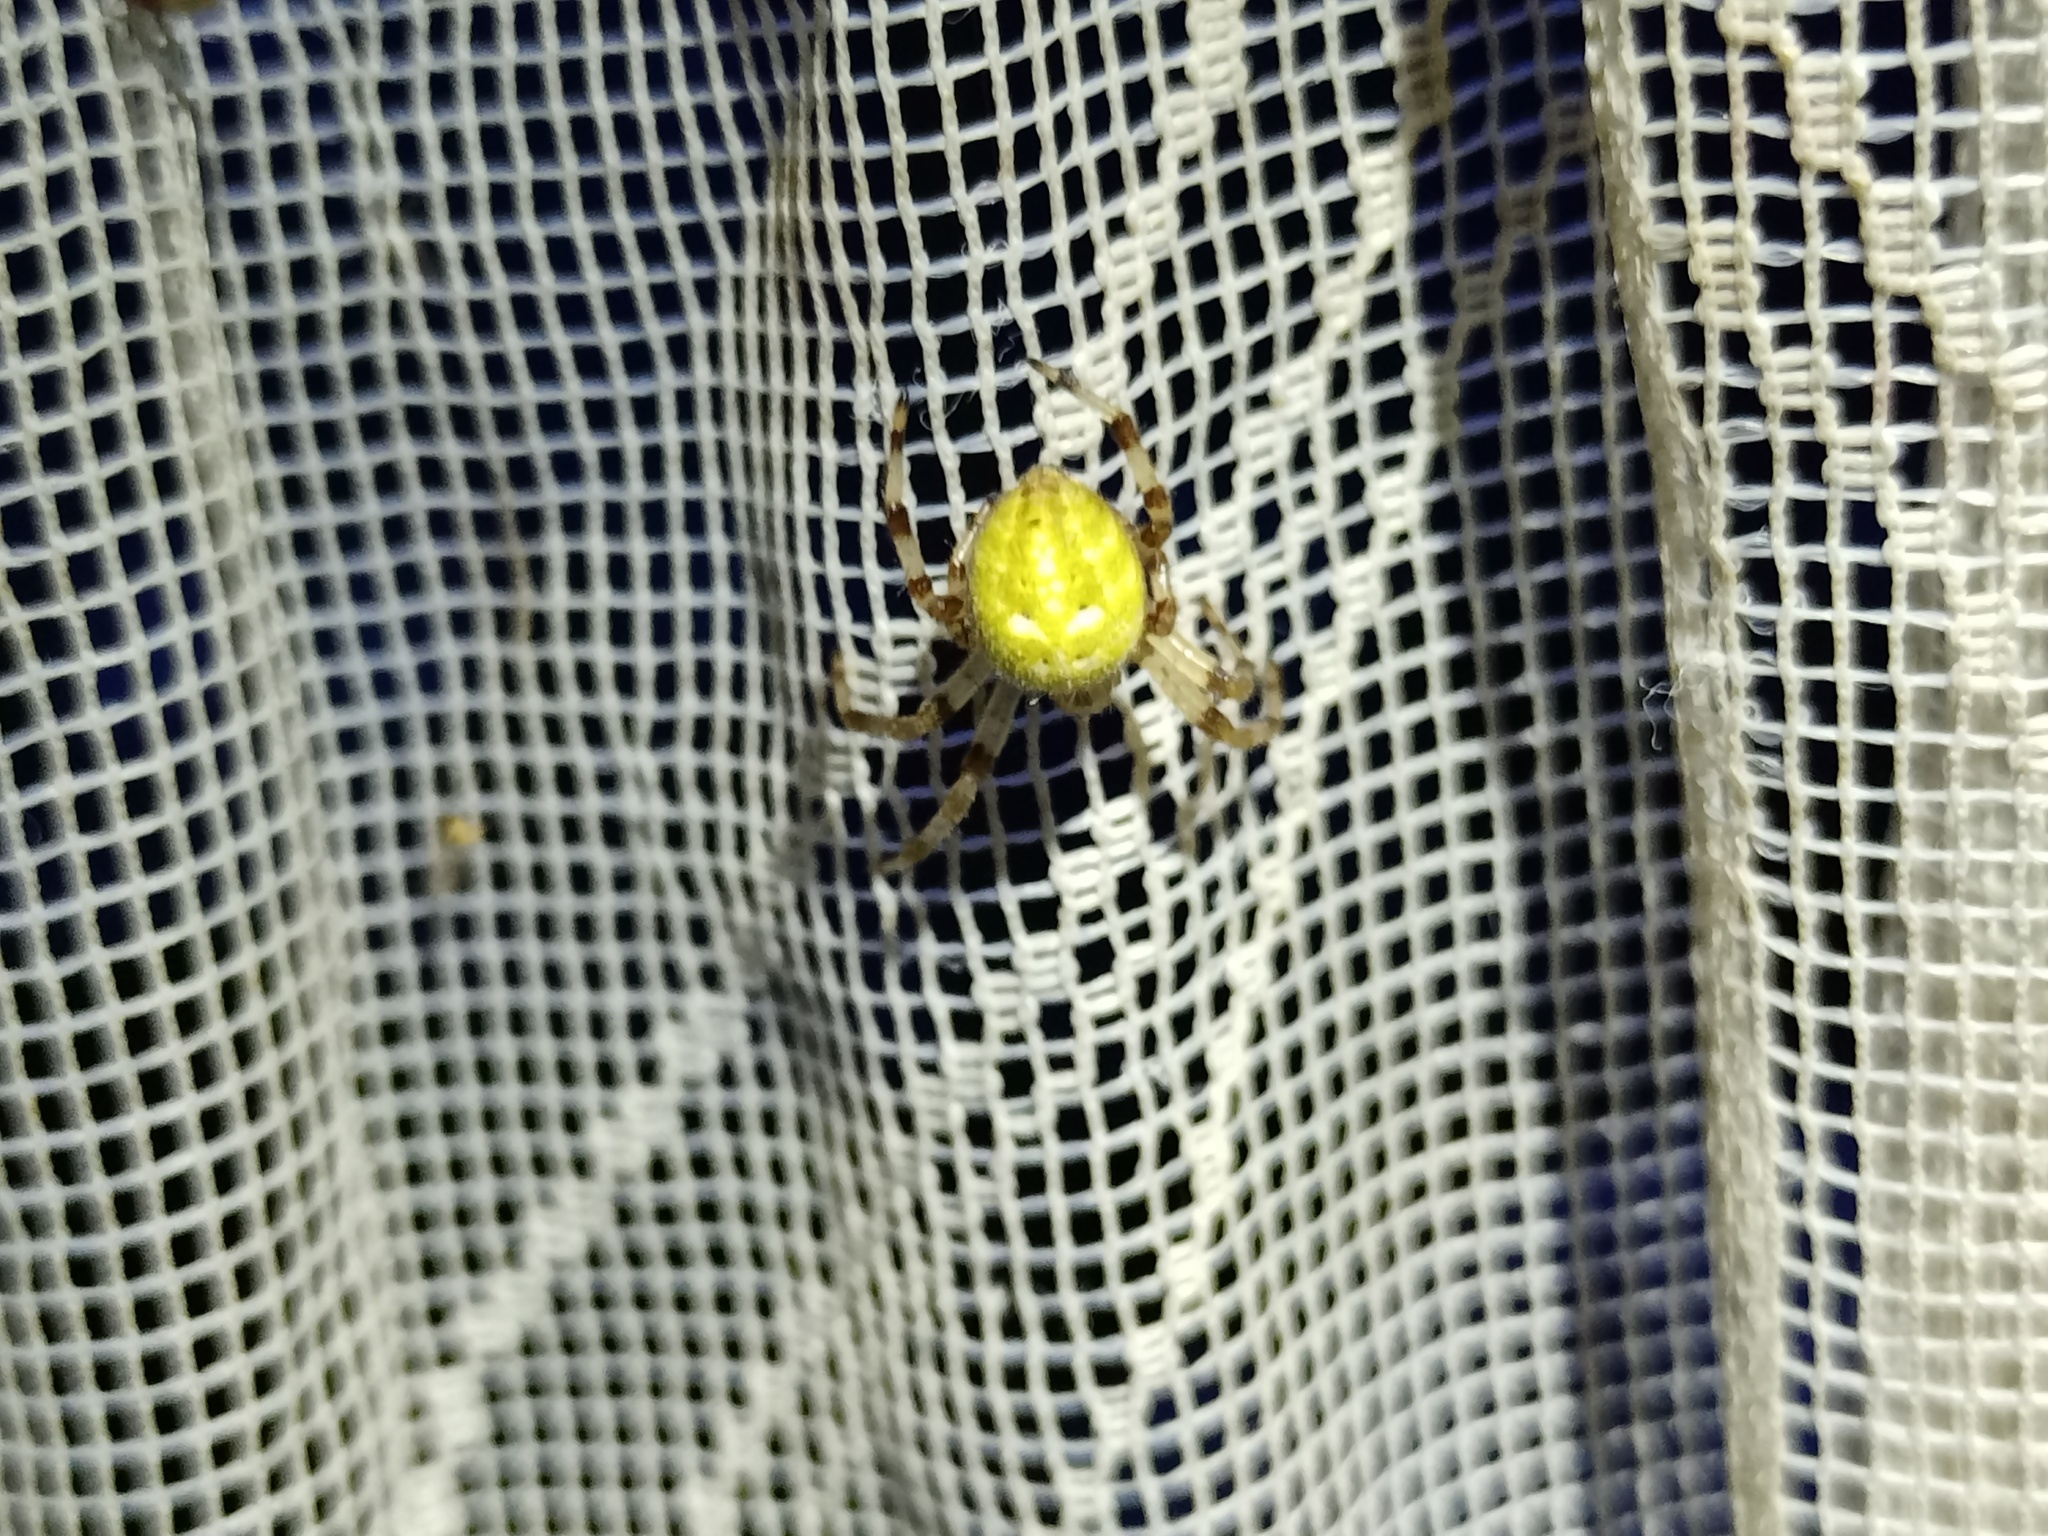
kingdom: Animalia
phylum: Arthropoda
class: Arachnida
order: Araneae
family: Araneidae
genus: Araneus
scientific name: Araneus quadratus
